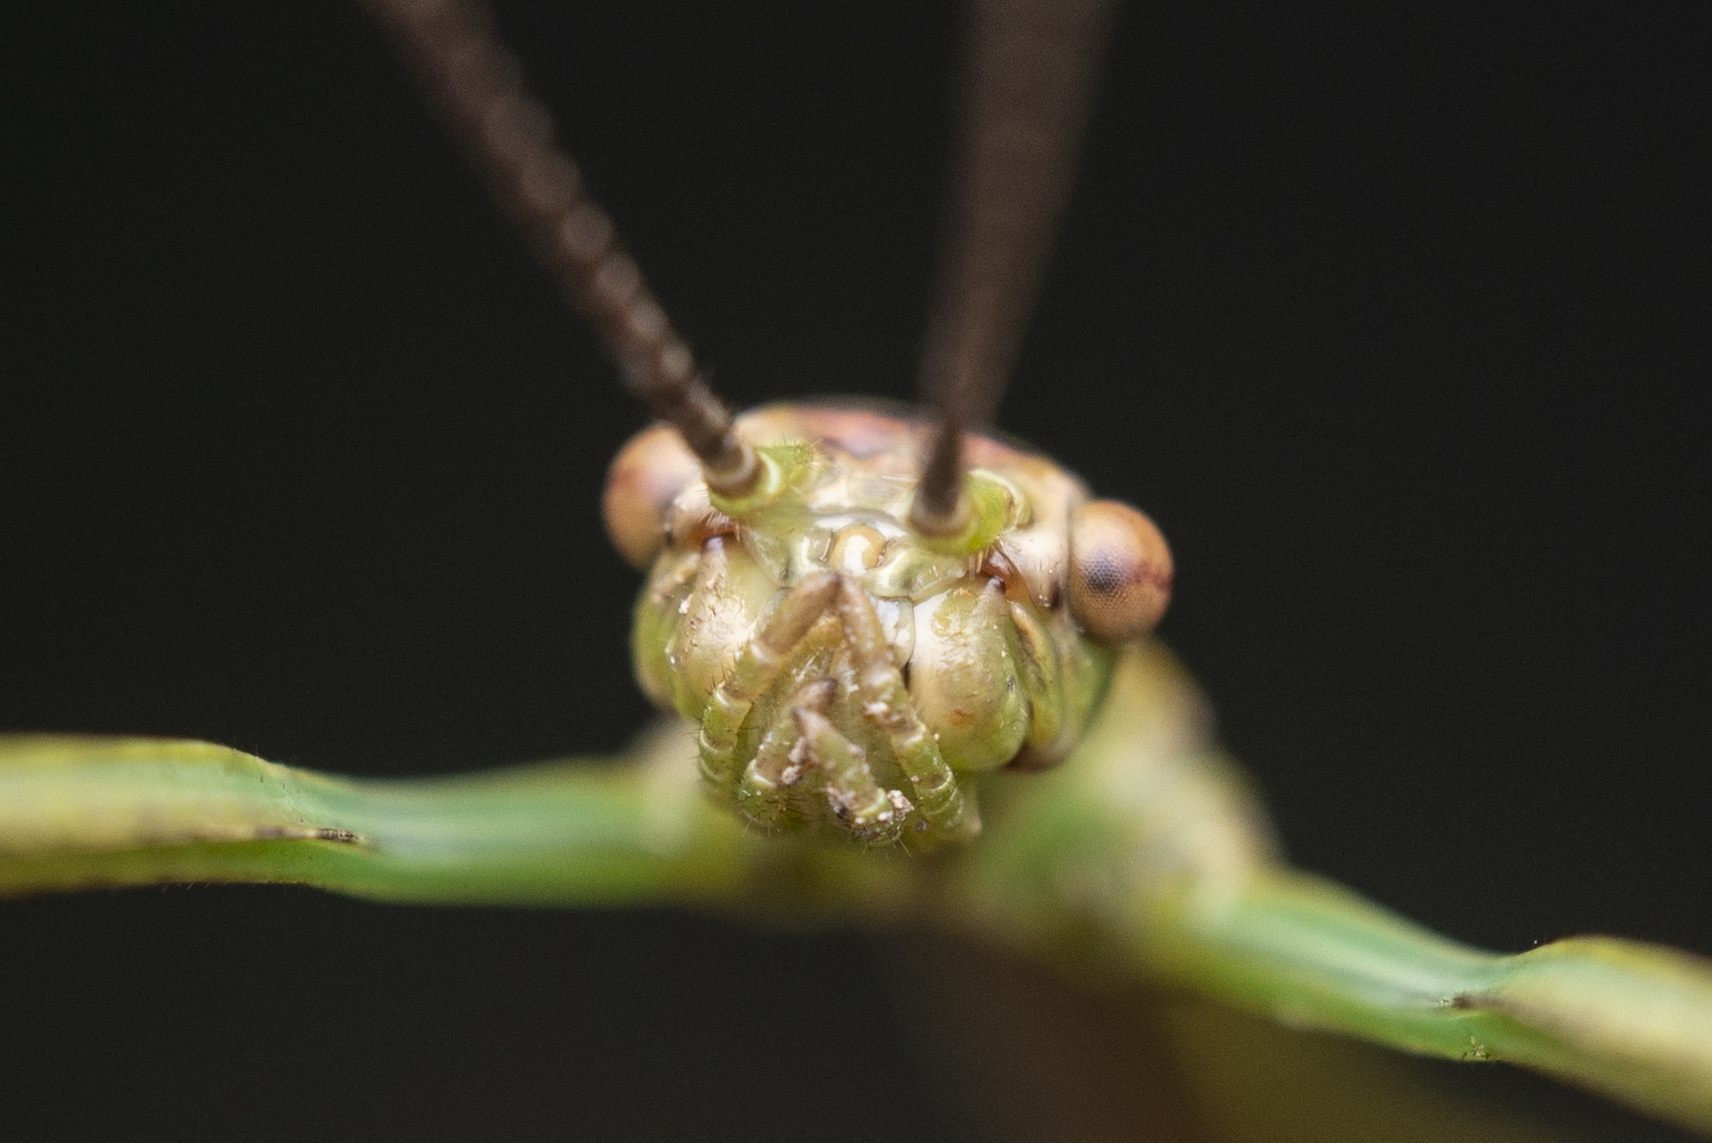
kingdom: Animalia
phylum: Arthropoda
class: Insecta
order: Phasmida
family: Phasmatidae
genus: Ramulus
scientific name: Ramulus caii
